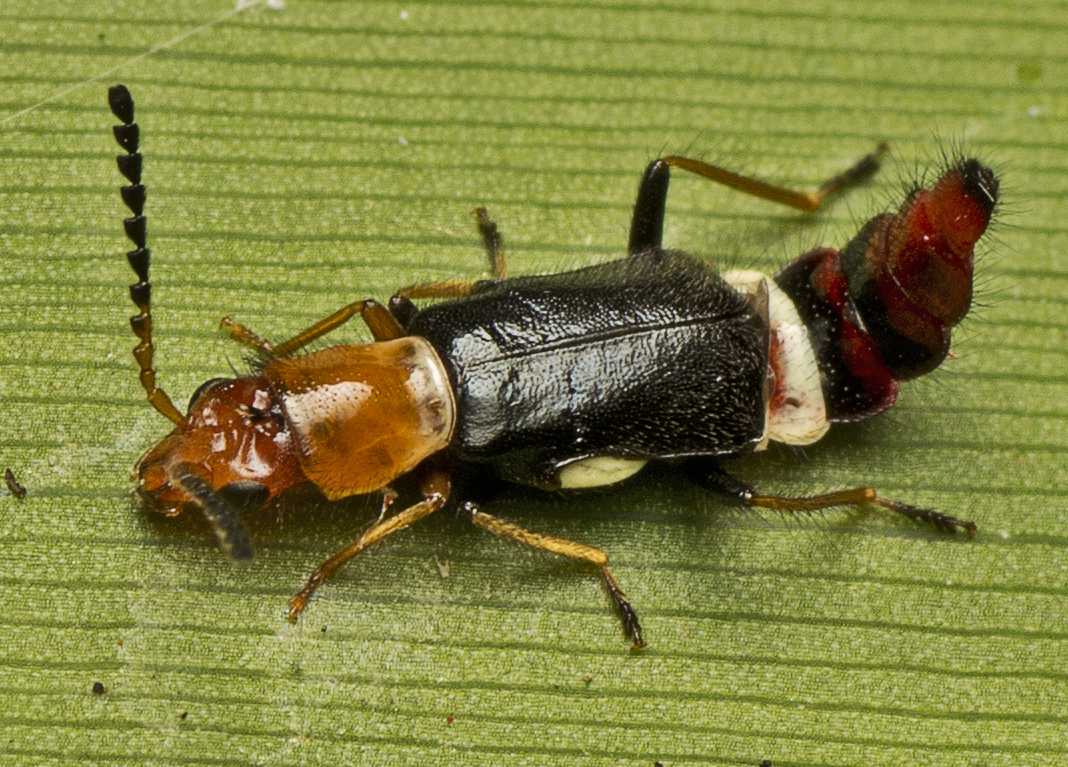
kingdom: Animalia
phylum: Arthropoda
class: Insecta
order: Coleoptera
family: Melyridae
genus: Carphurus
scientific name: Carphurus
